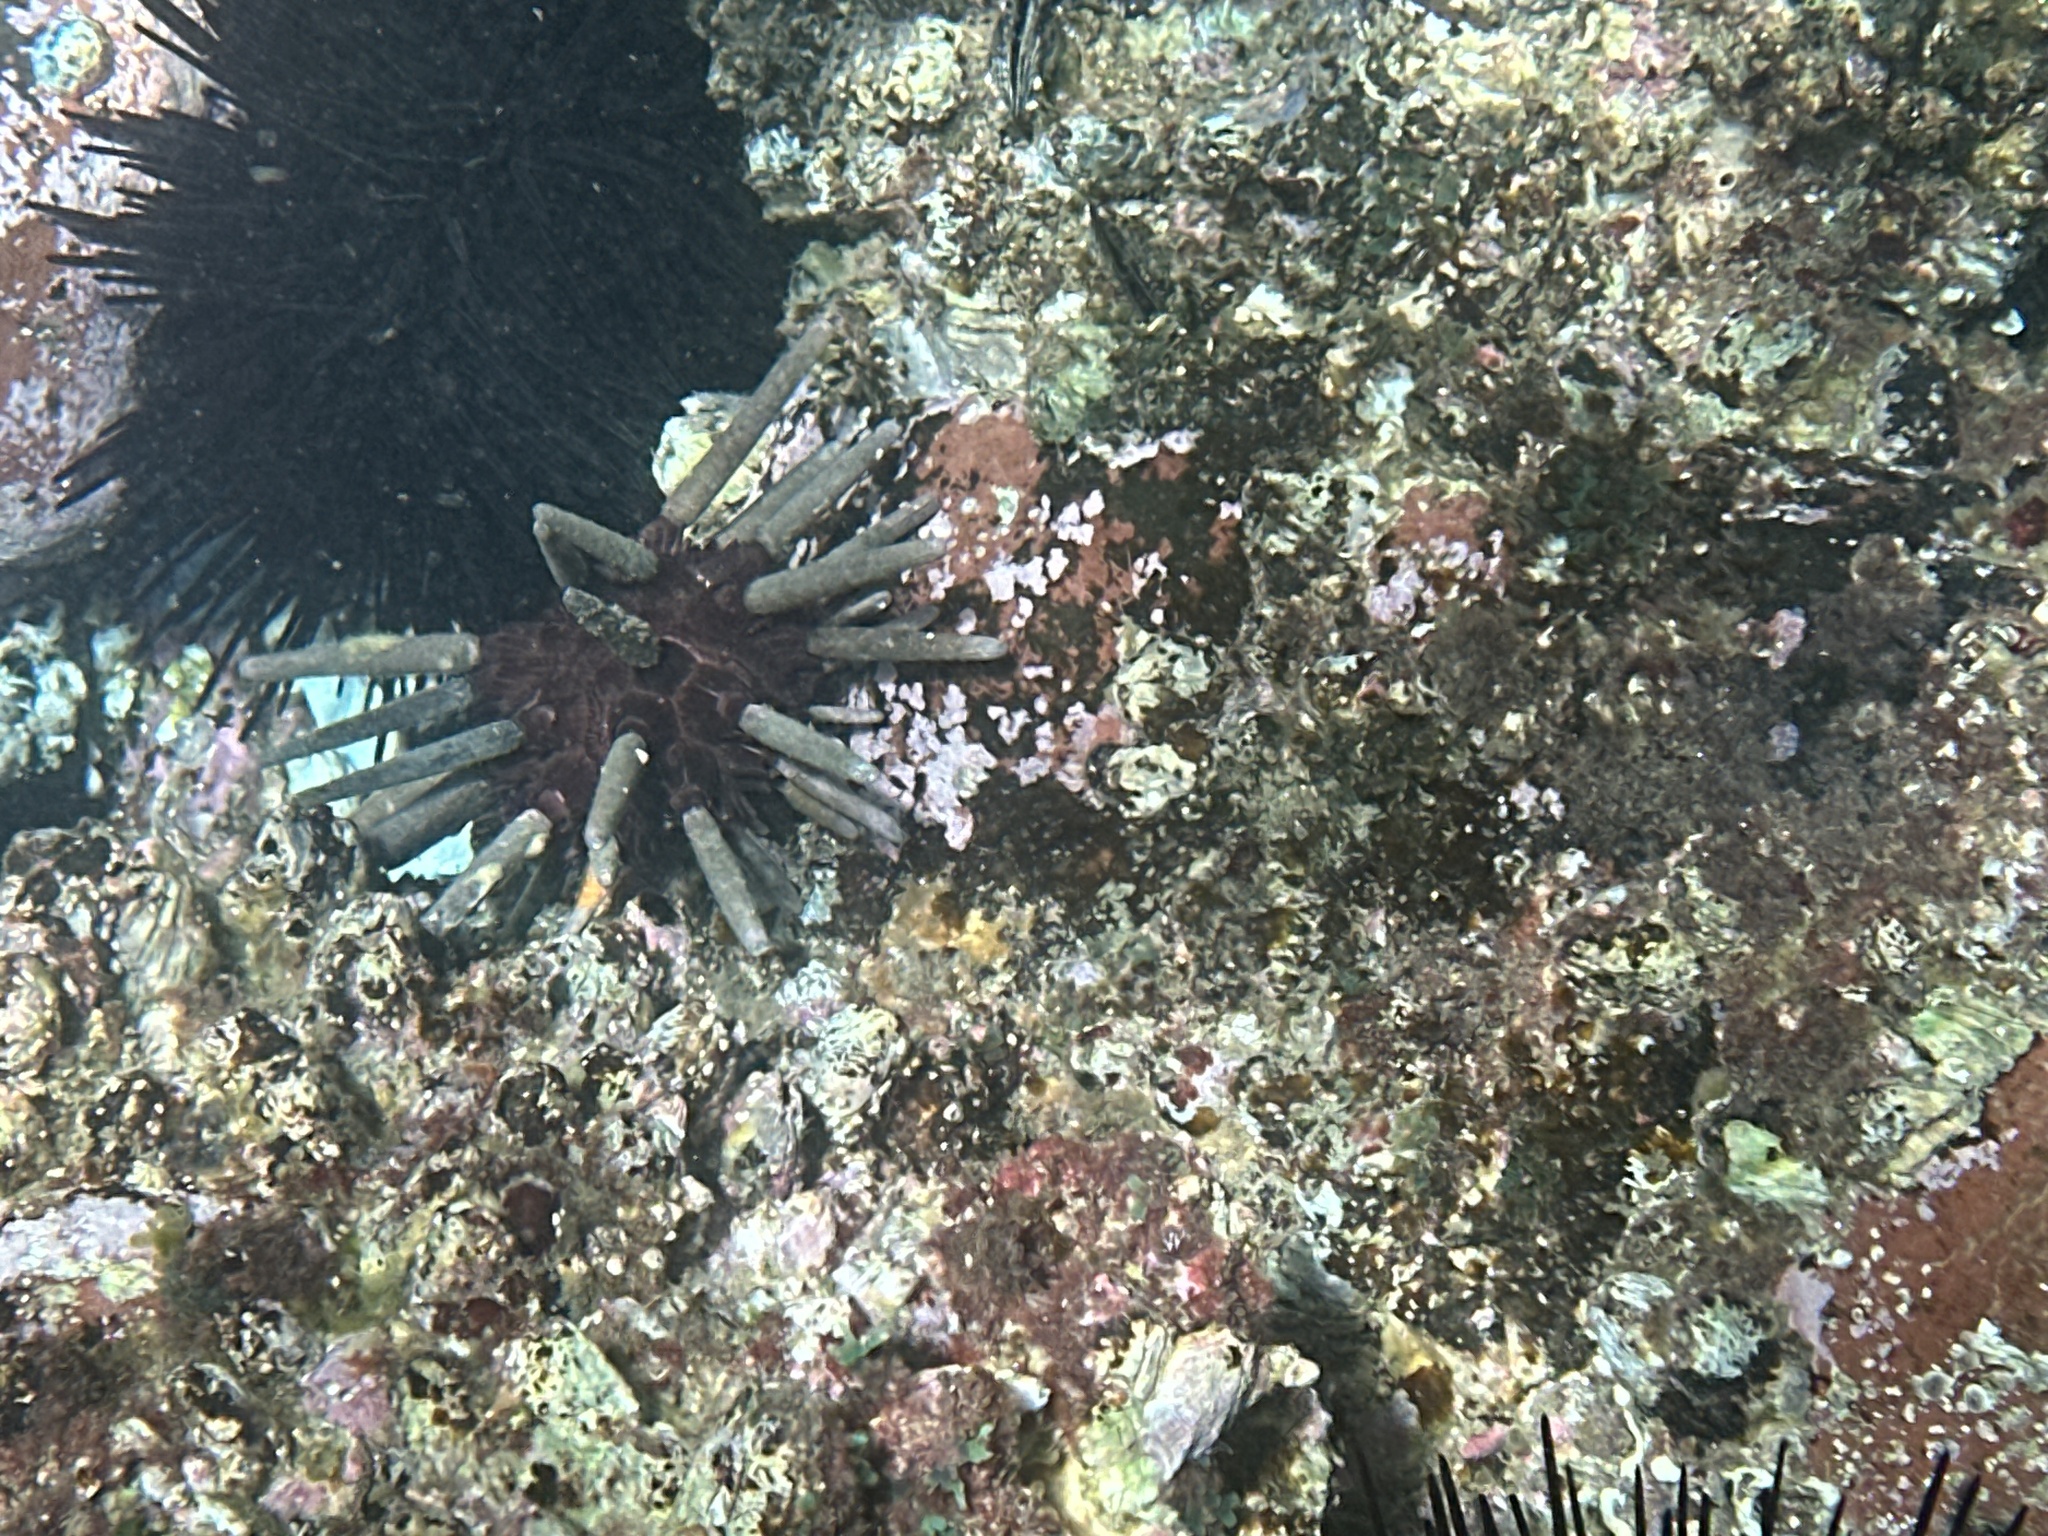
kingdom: Animalia
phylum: Echinodermata
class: Echinoidea
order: Cidaroida
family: Cidaridae
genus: Phyllacanthus
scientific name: Phyllacanthus parvispinus
